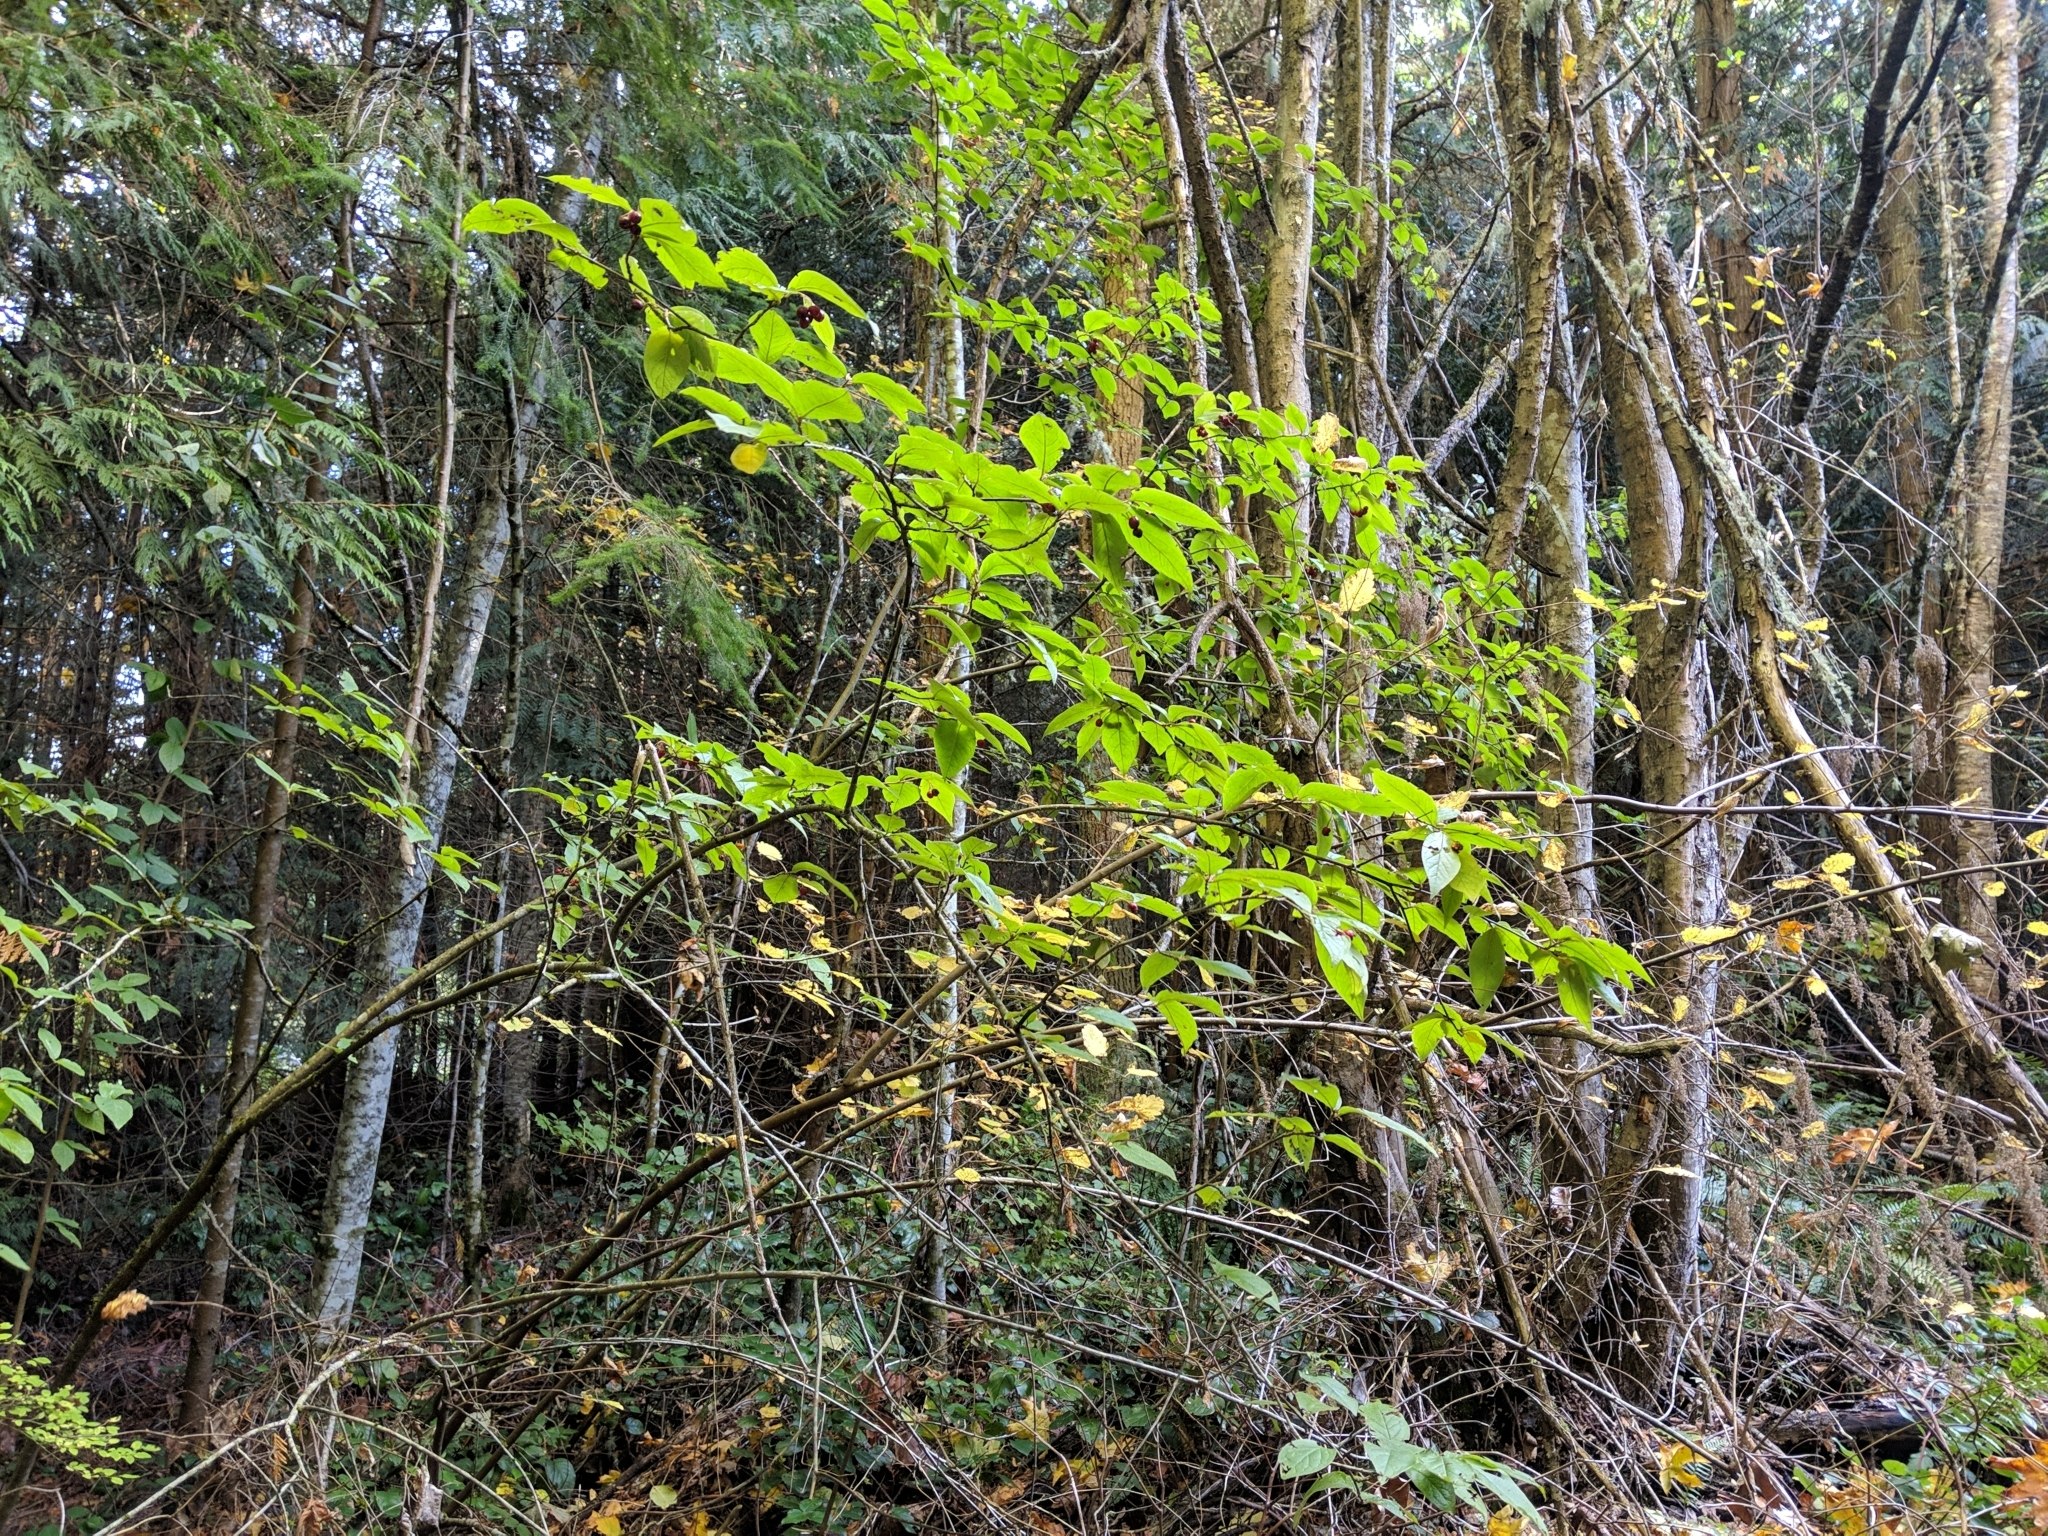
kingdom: Plantae
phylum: Tracheophyta
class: Magnoliopsida
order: Rosales
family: Rosaceae
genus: Cotoneaster
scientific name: Cotoneaster bullatus
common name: Hollyberry cotoneaster
